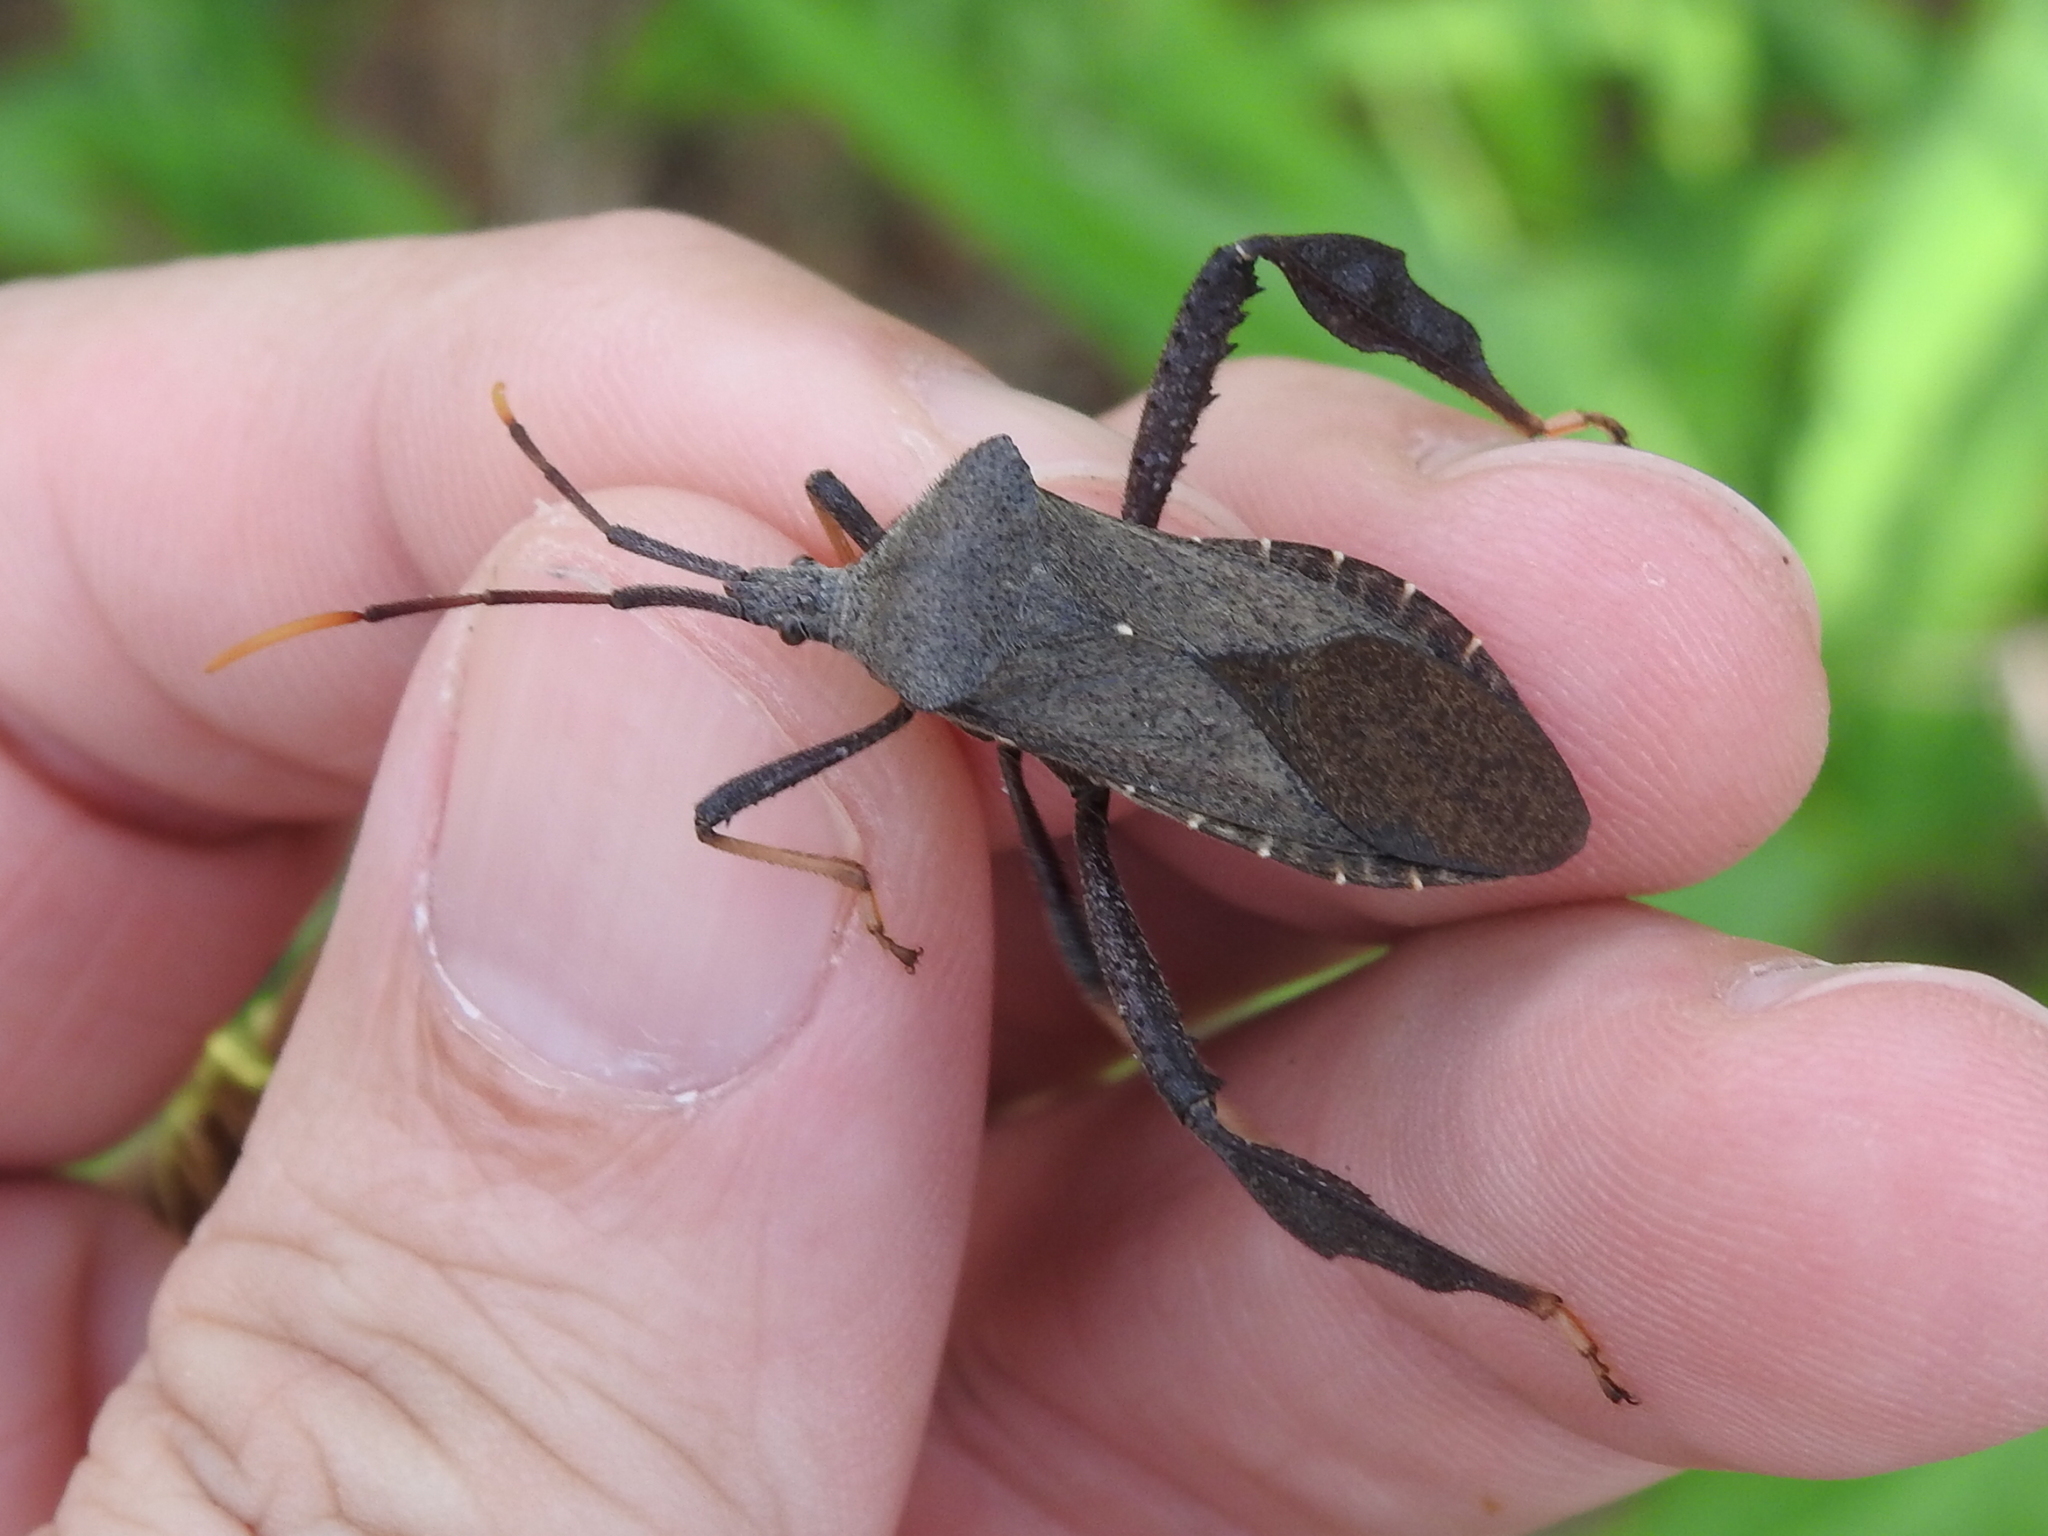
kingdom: Animalia
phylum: Arthropoda
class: Insecta
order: Hemiptera
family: Coreidae
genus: Acanthocephala
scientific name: Acanthocephala terminalis
